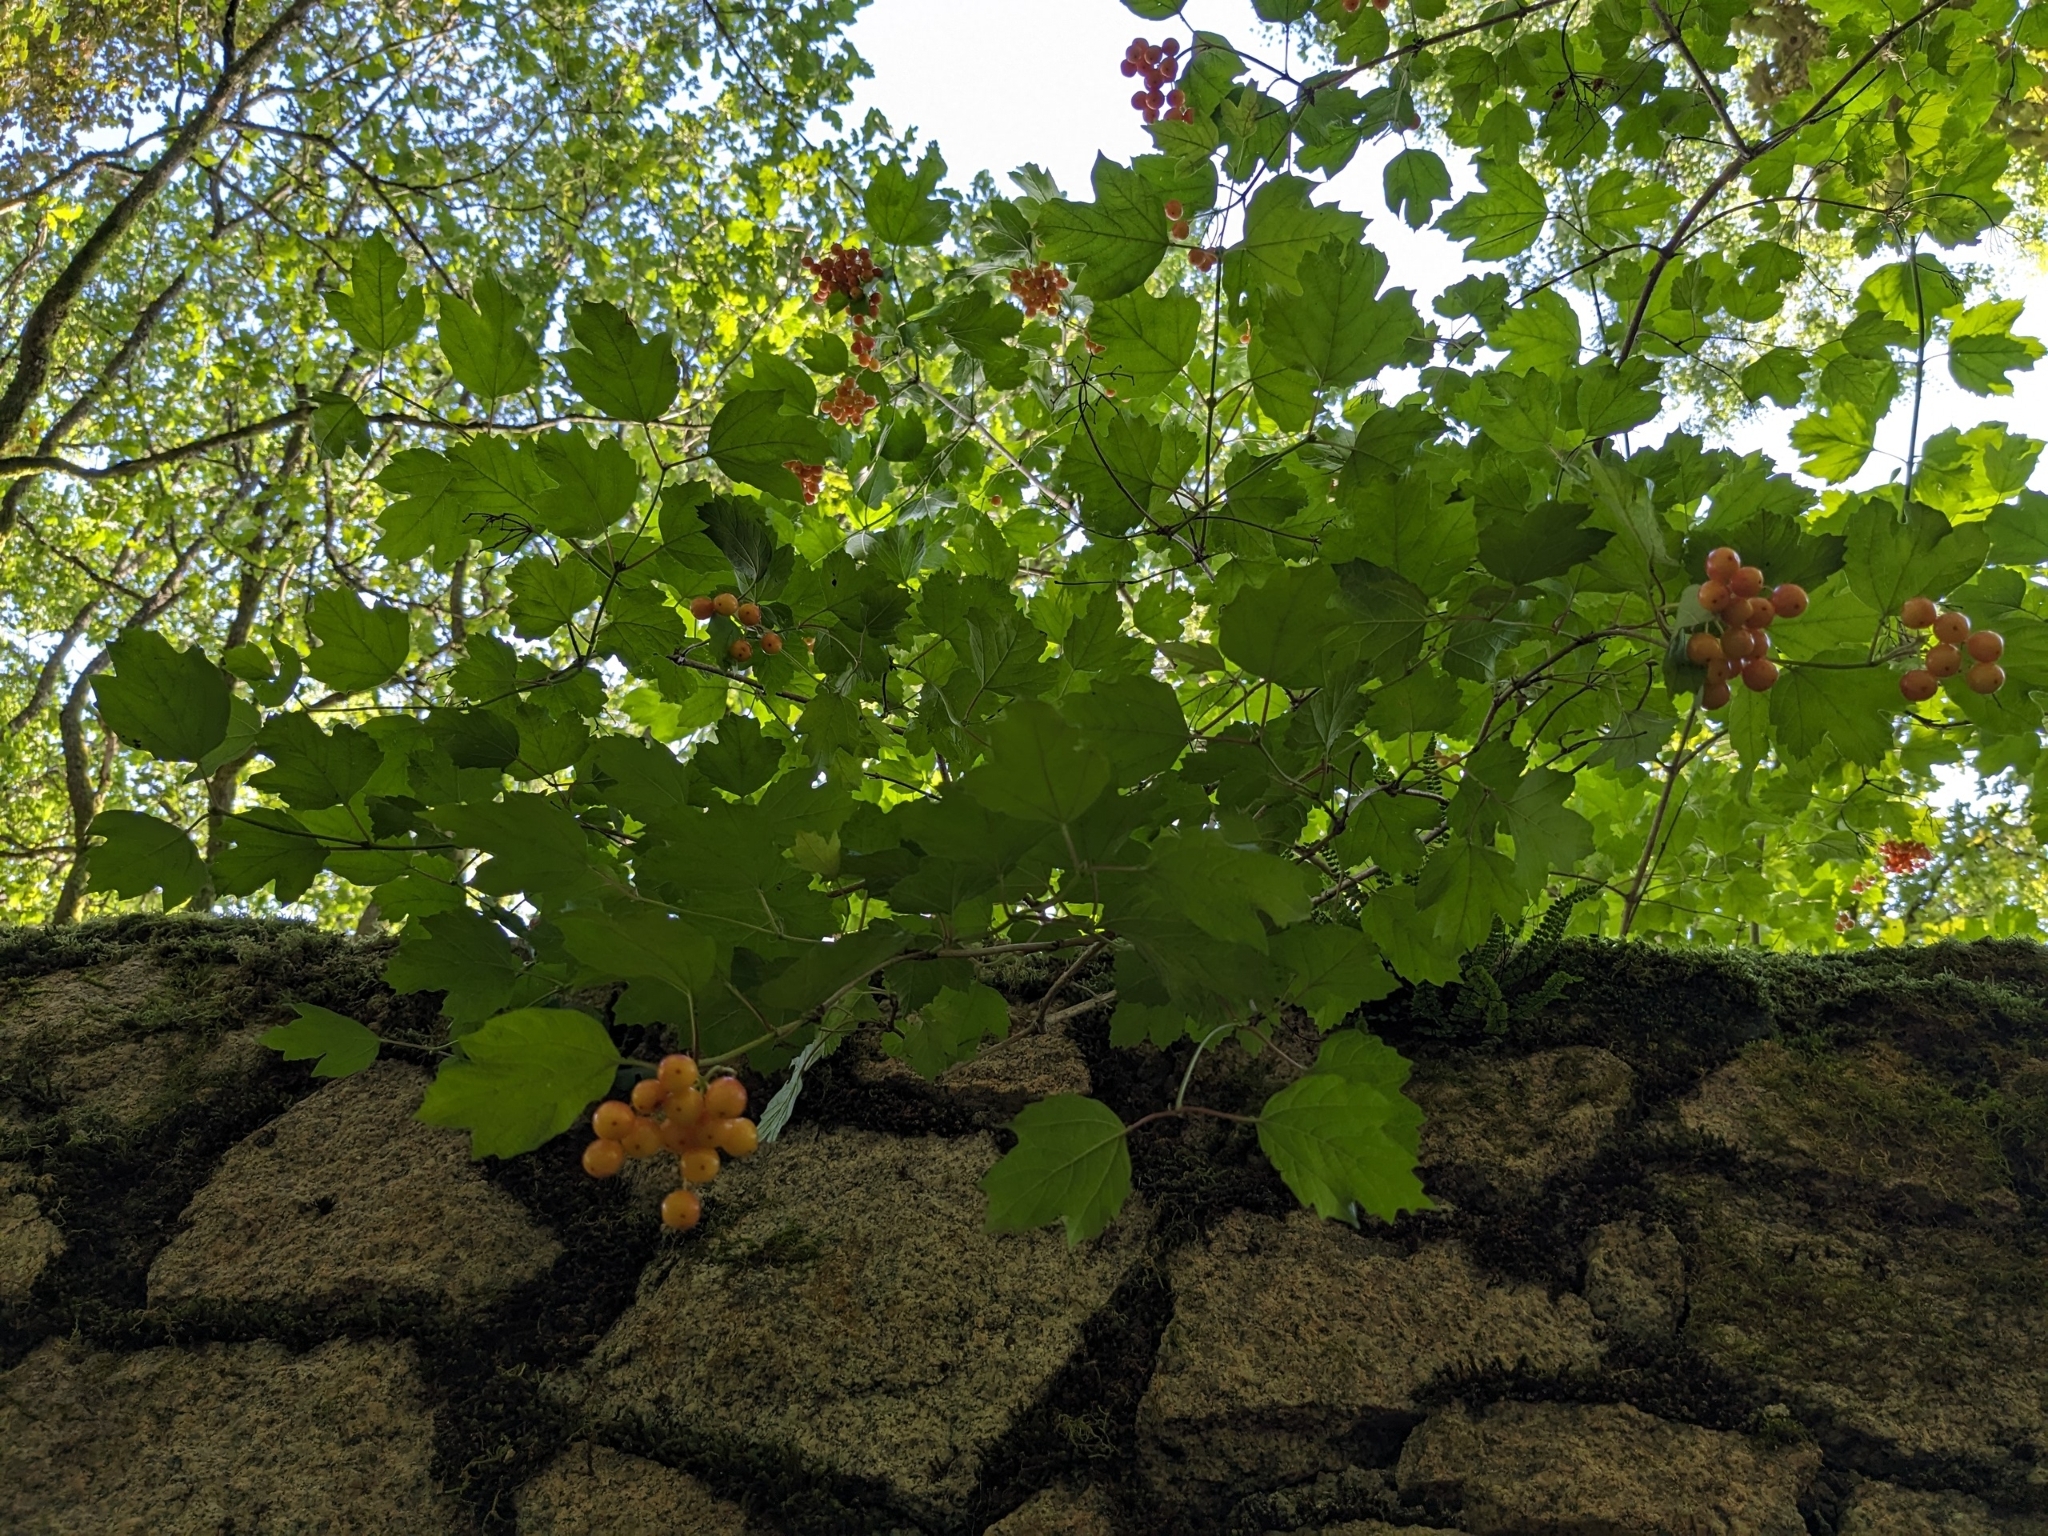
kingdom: Plantae
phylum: Tracheophyta
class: Magnoliopsida
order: Dipsacales
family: Viburnaceae
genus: Viburnum
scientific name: Viburnum opulus
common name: Guelder-rose
